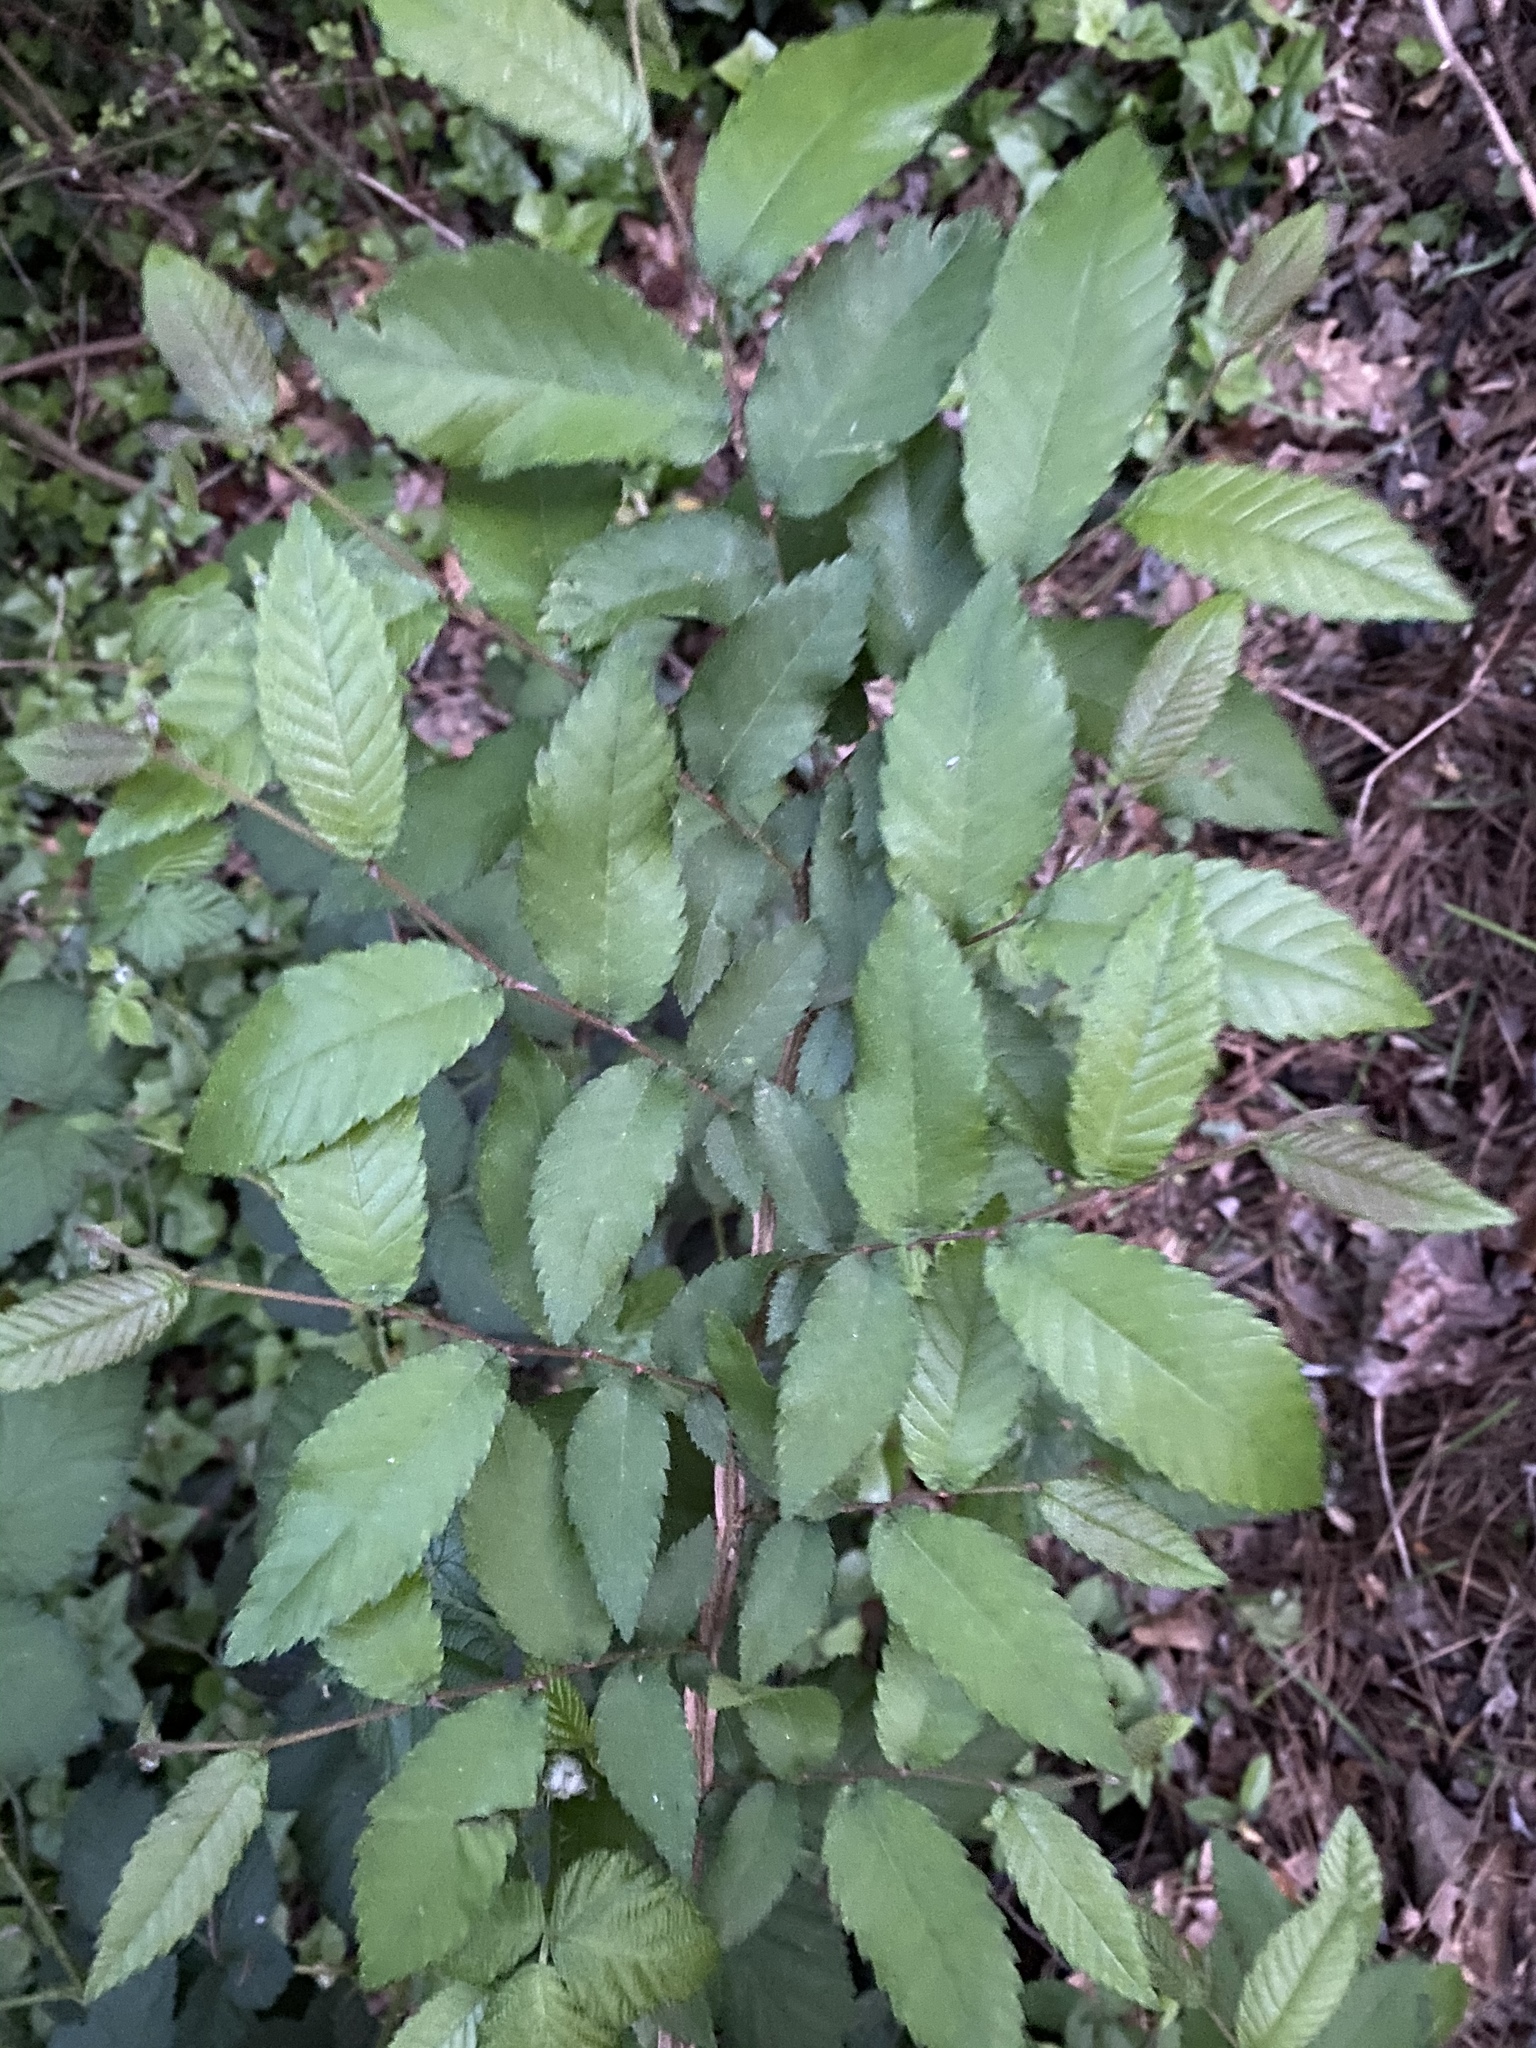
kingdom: Plantae
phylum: Tracheophyta
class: Magnoliopsida
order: Rosales
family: Ulmaceae
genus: Ulmus
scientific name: Ulmus alata
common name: Winged elm
